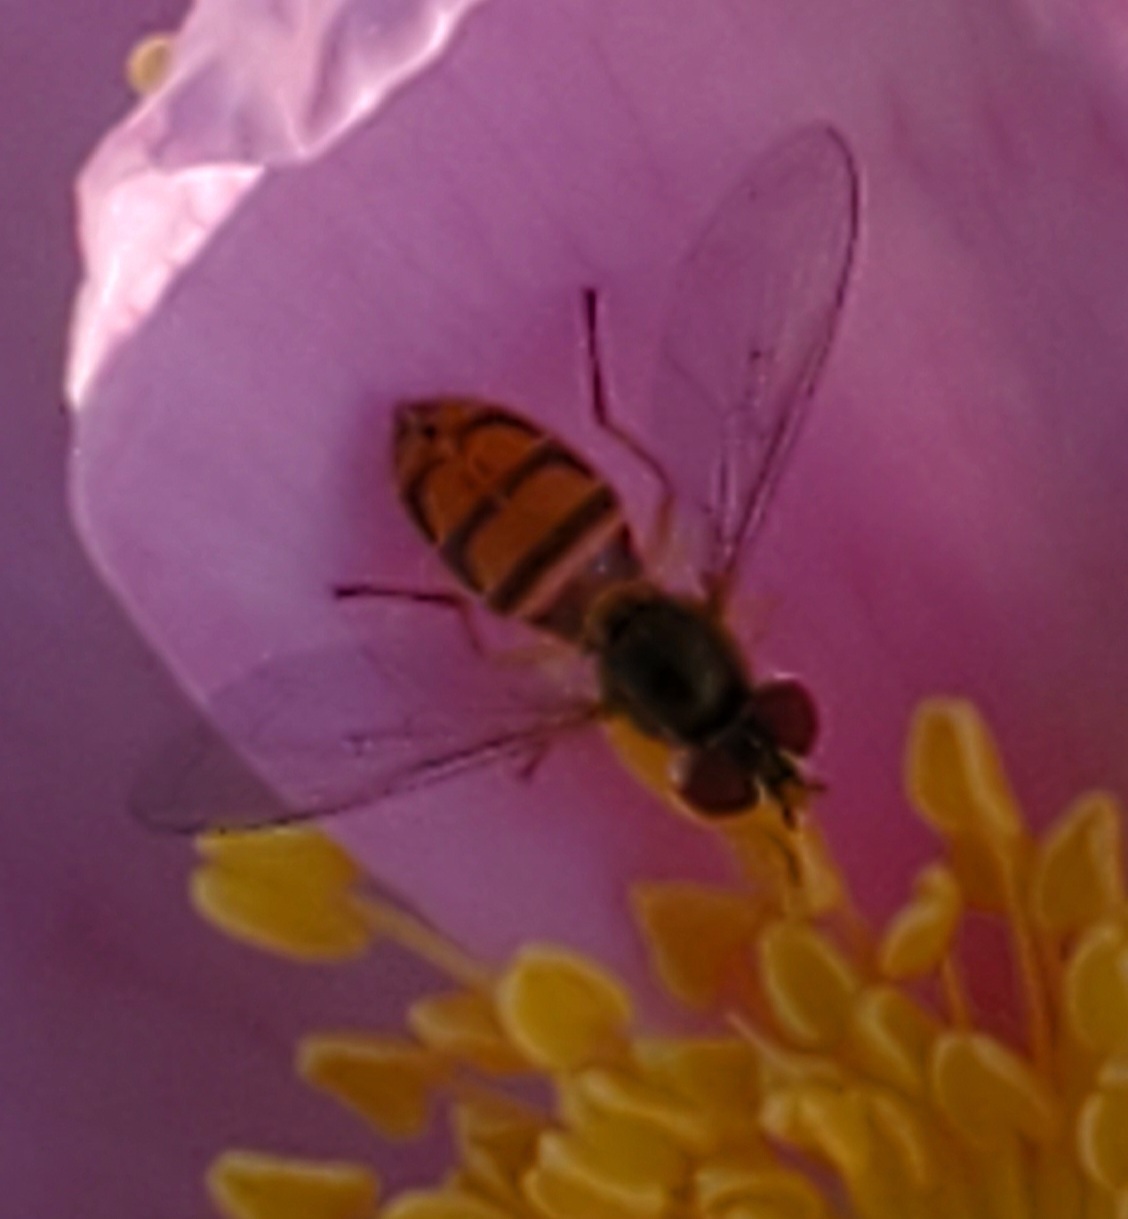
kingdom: Animalia
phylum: Arthropoda
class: Insecta
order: Diptera
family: Syrphidae
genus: Toxomerus
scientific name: Toxomerus marginatus
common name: Syrphid fly
